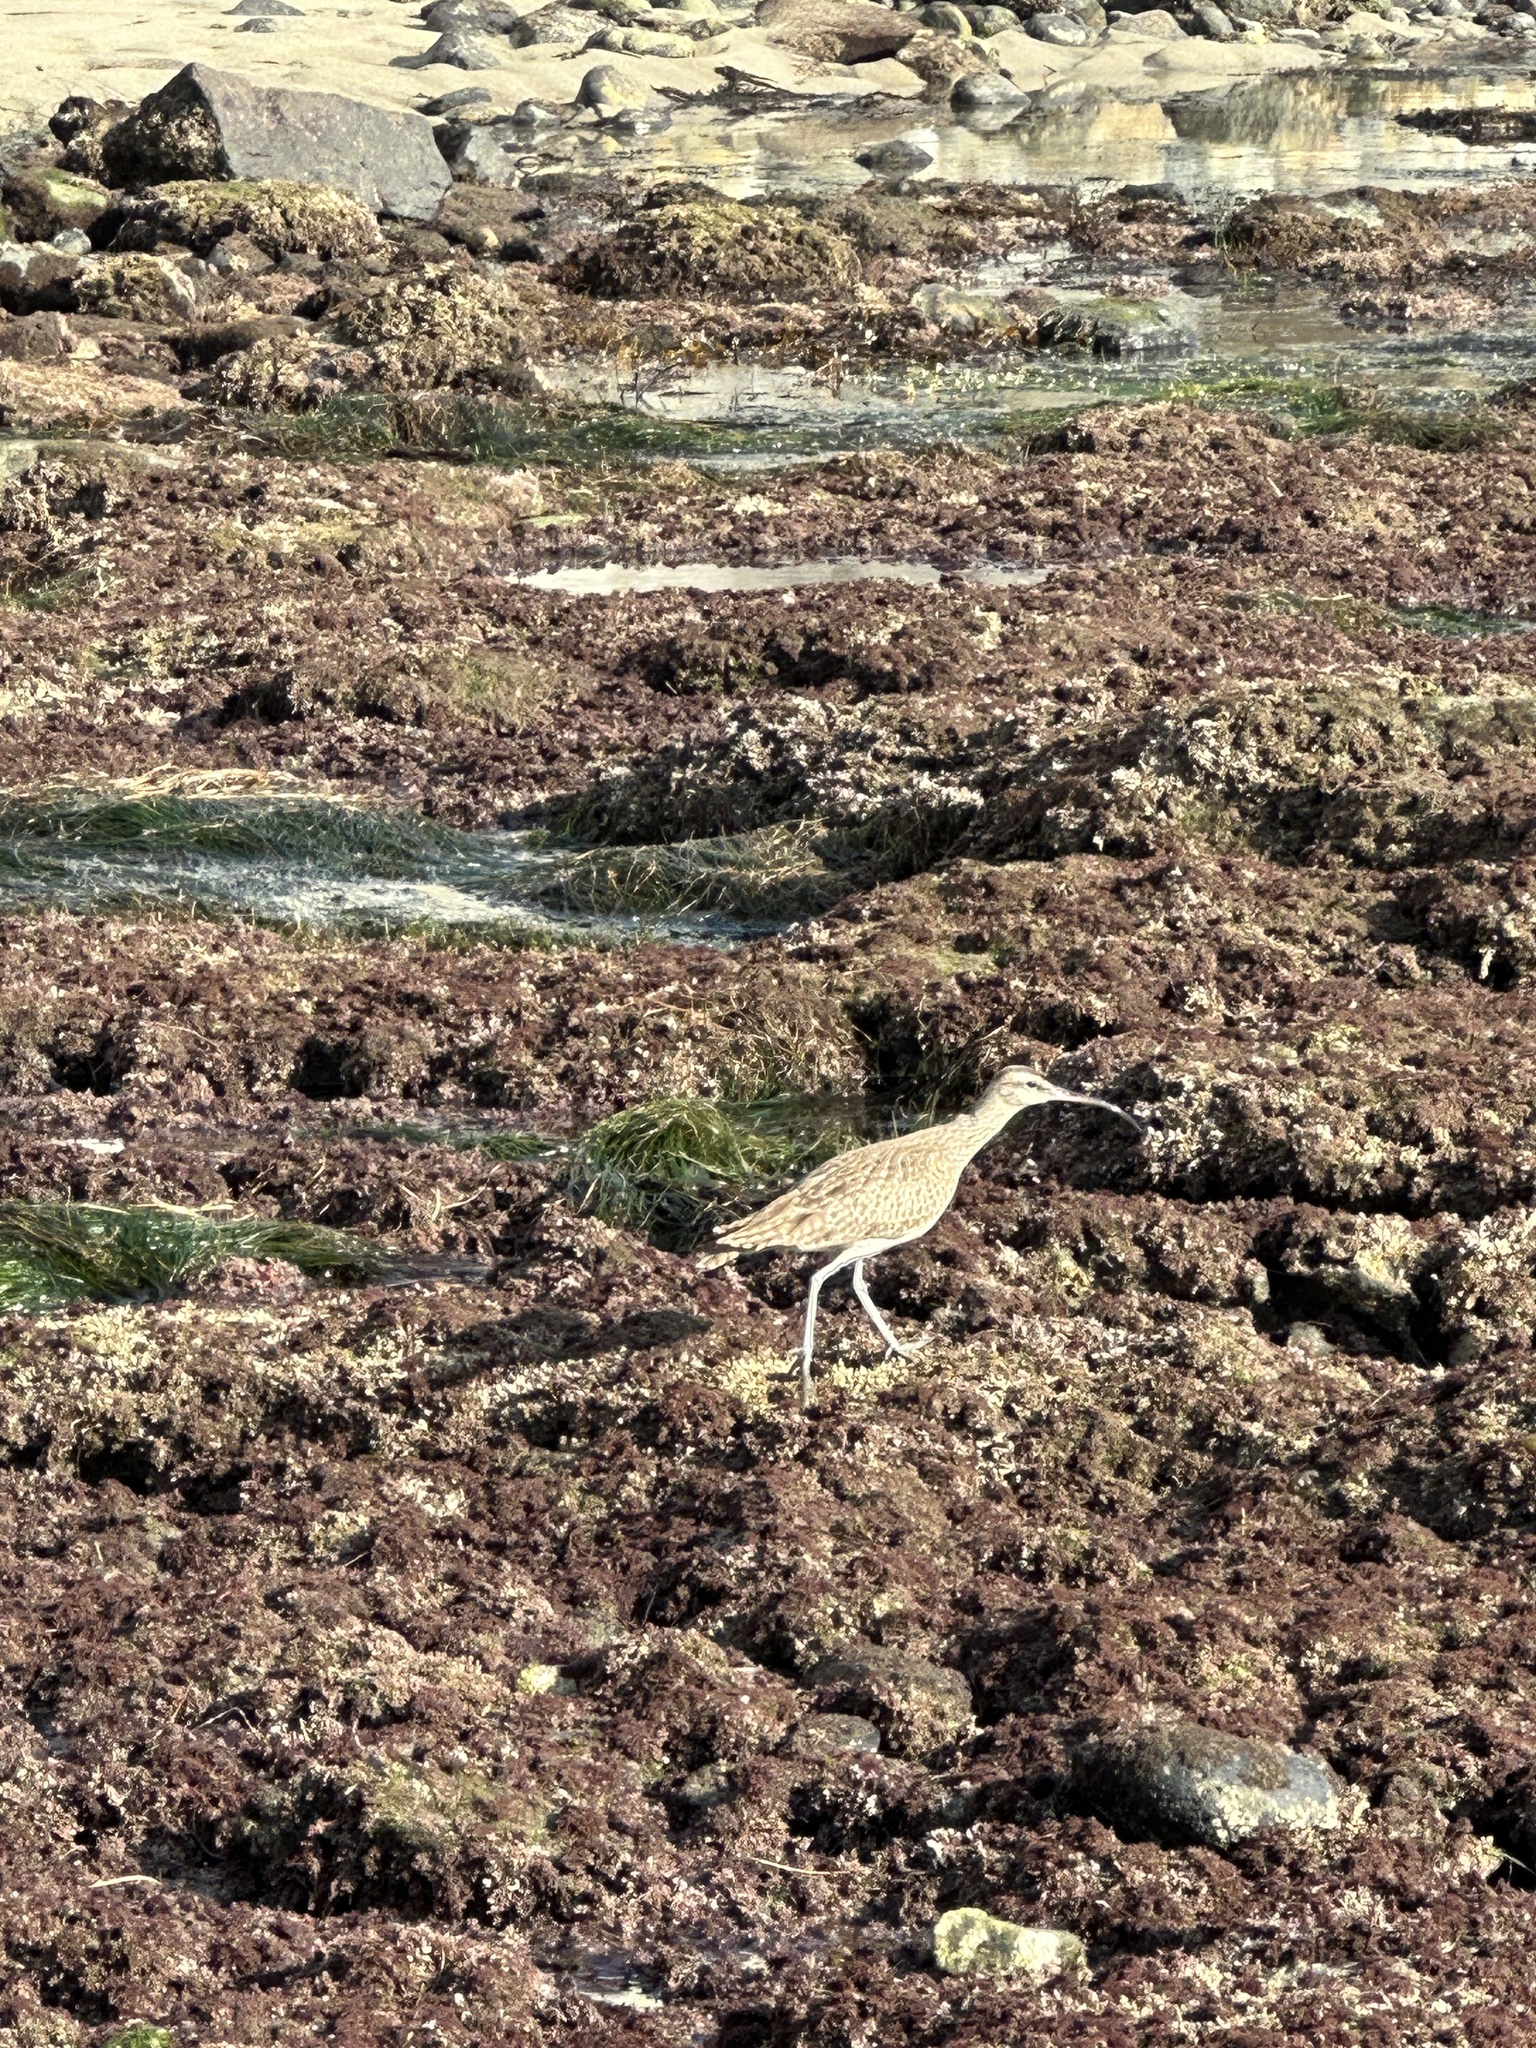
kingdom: Animalia
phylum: Chordata
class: Aves
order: Charadriiformes
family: Scolopacidae
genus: Numenius
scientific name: Numenius phaeopus
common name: Whimbrel
